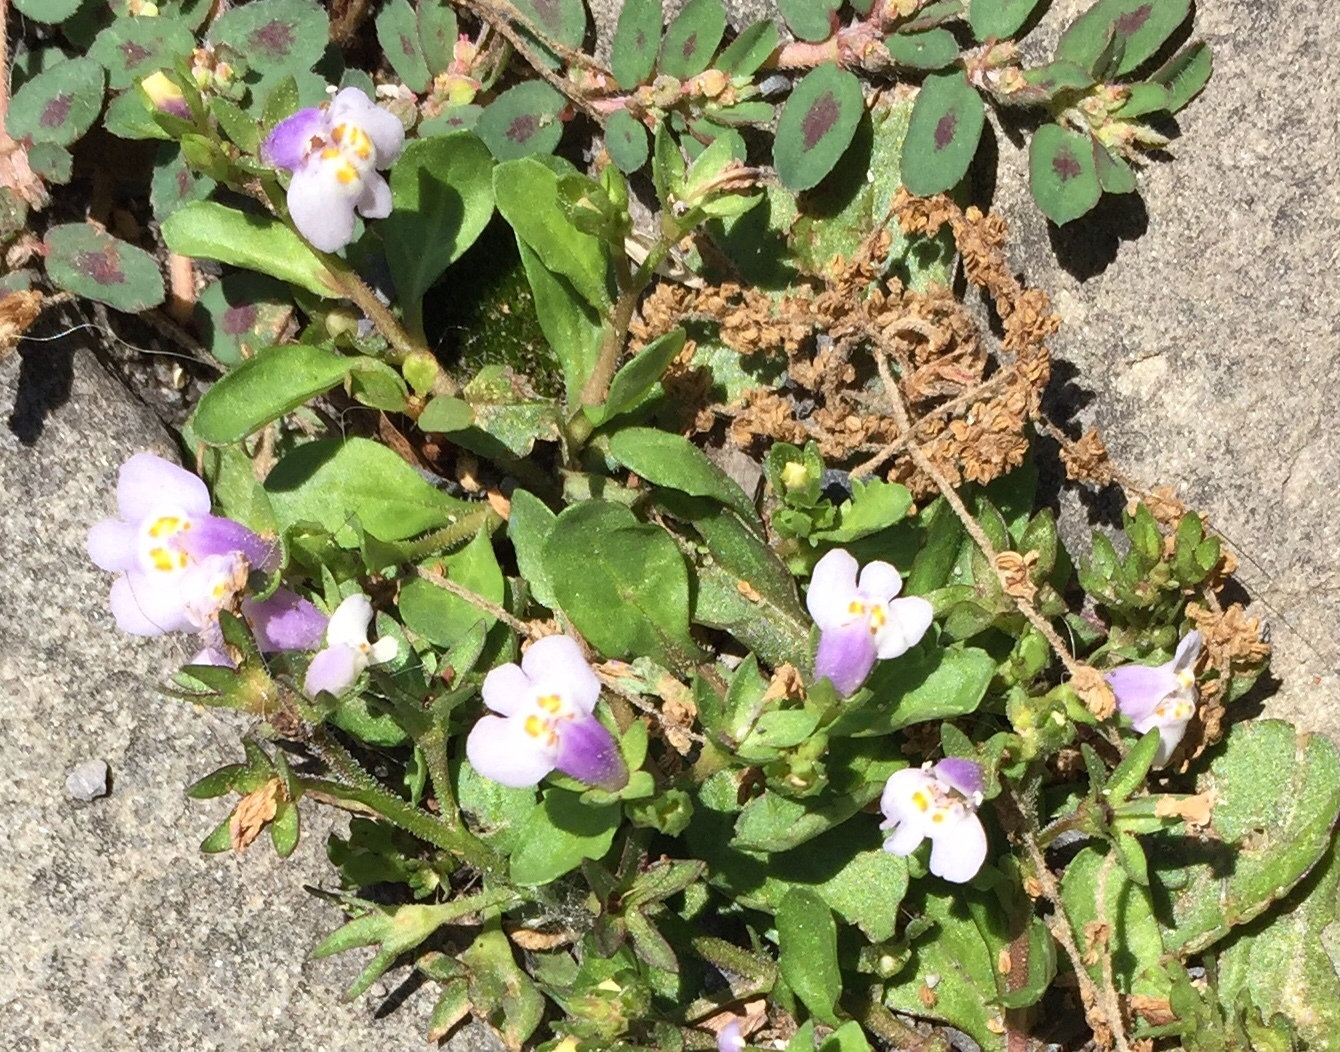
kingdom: Plantae
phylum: Tracheophyta
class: Magnoliopsida
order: Lamiales
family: Mazaceae
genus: Mazus
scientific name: Mazus pumilus
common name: Japanese mazus
